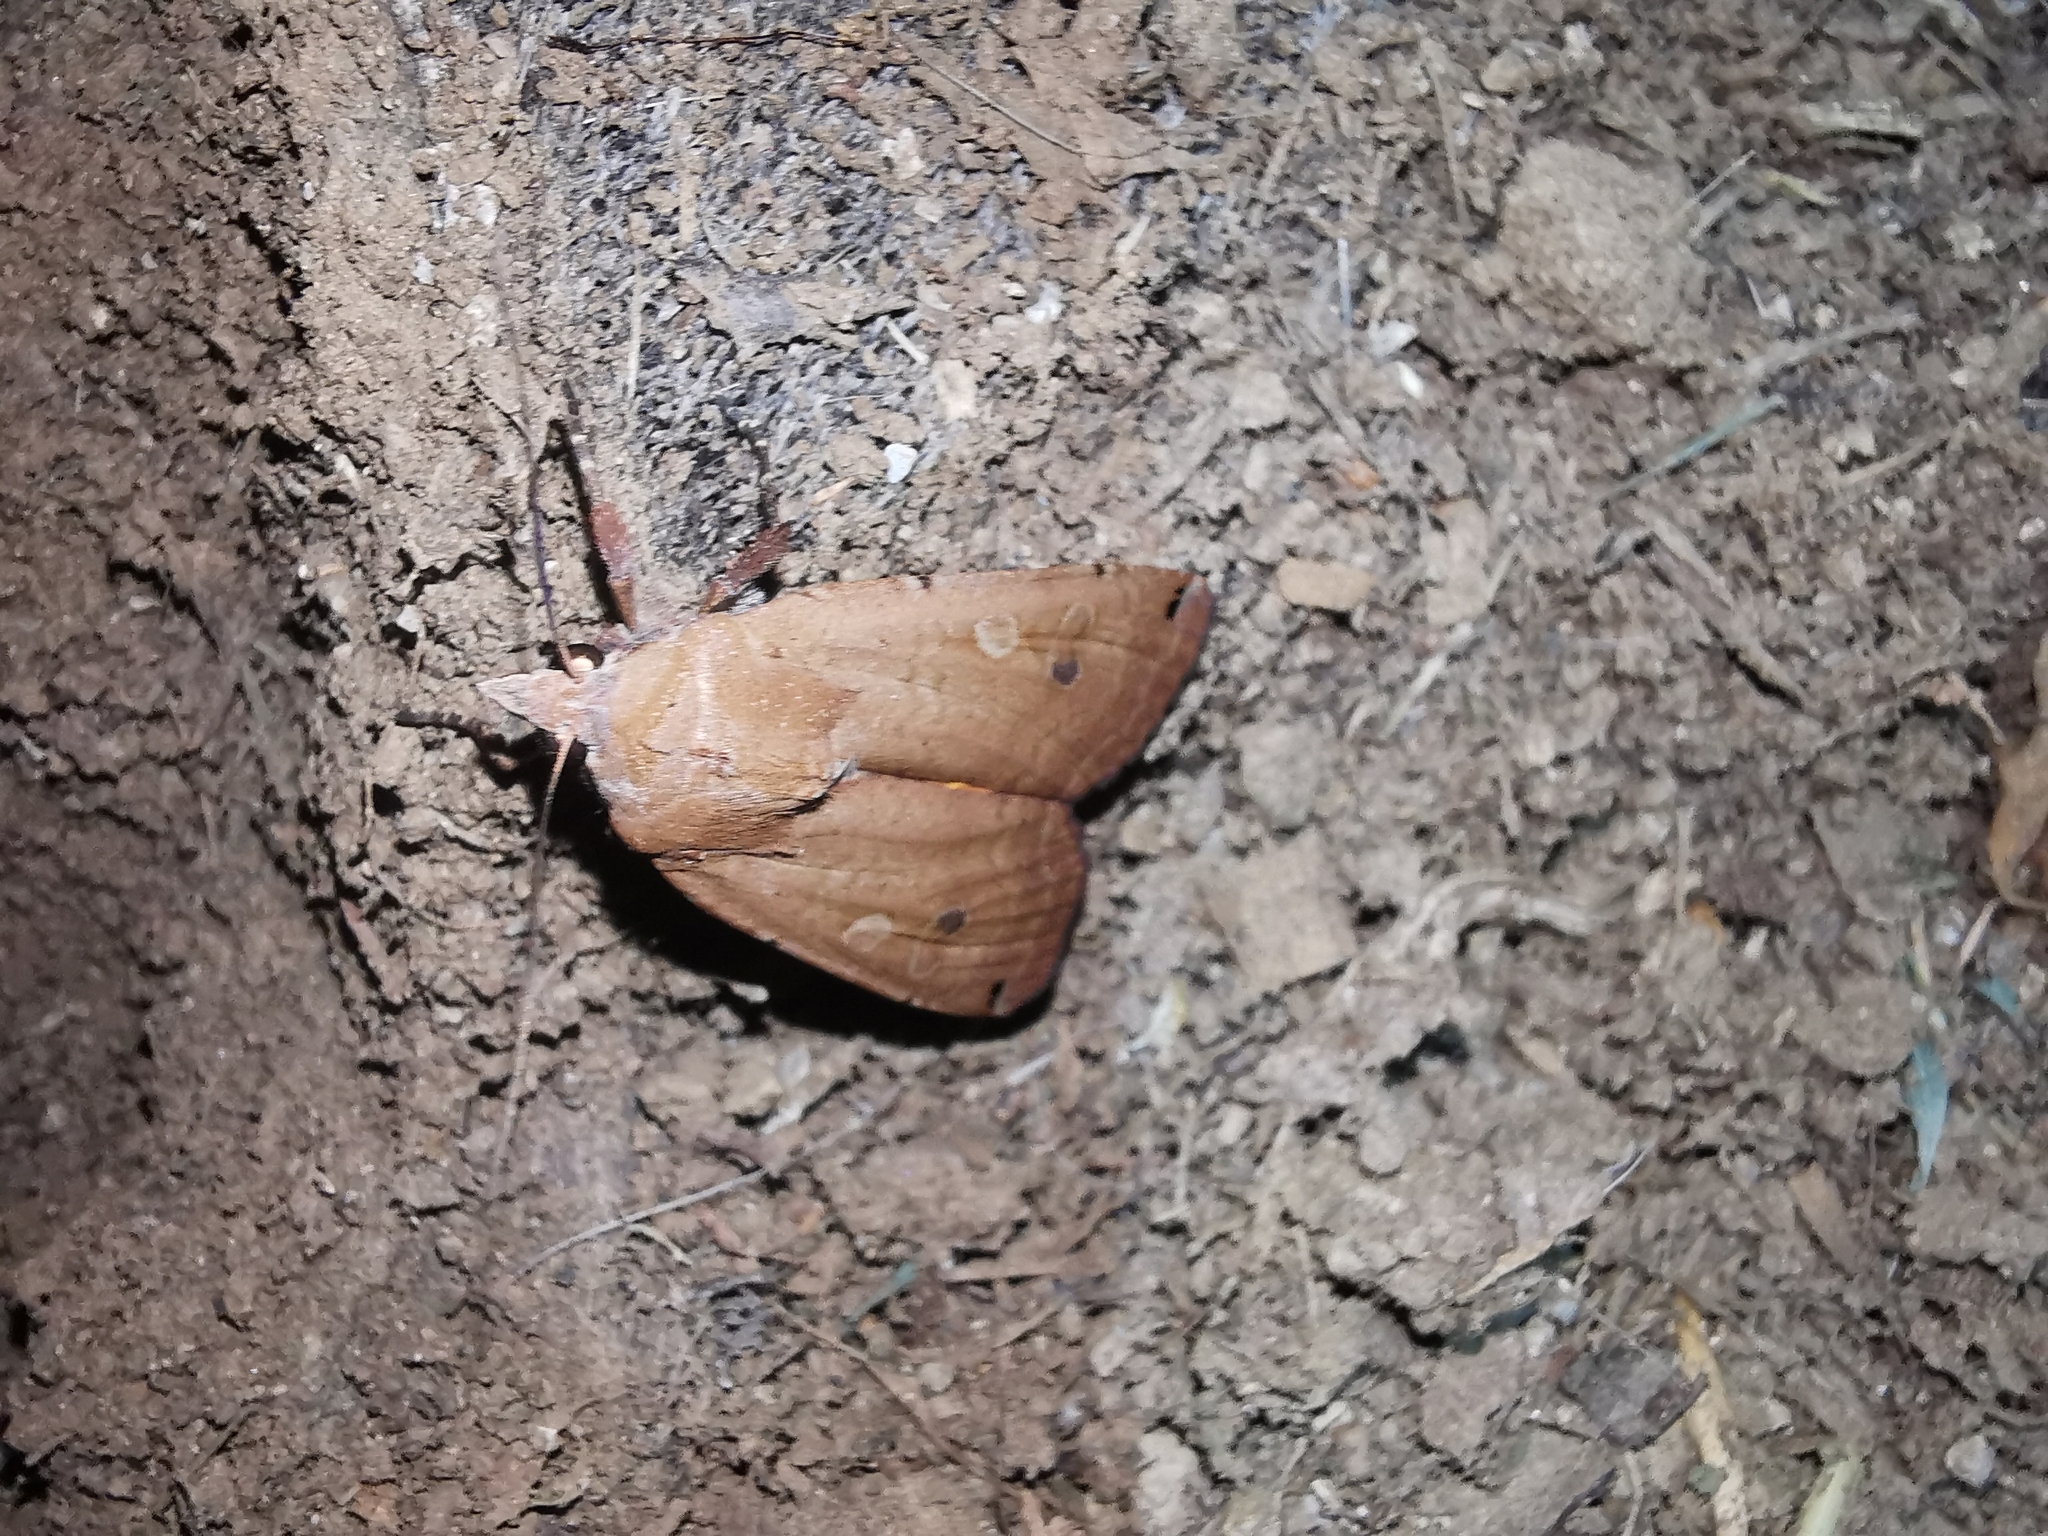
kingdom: Animalia
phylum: Arthropoda
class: Insecta
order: Lepidoptera
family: Noctuidae
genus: Noctua
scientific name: Noctua pronuba
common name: Large yellow underwing
